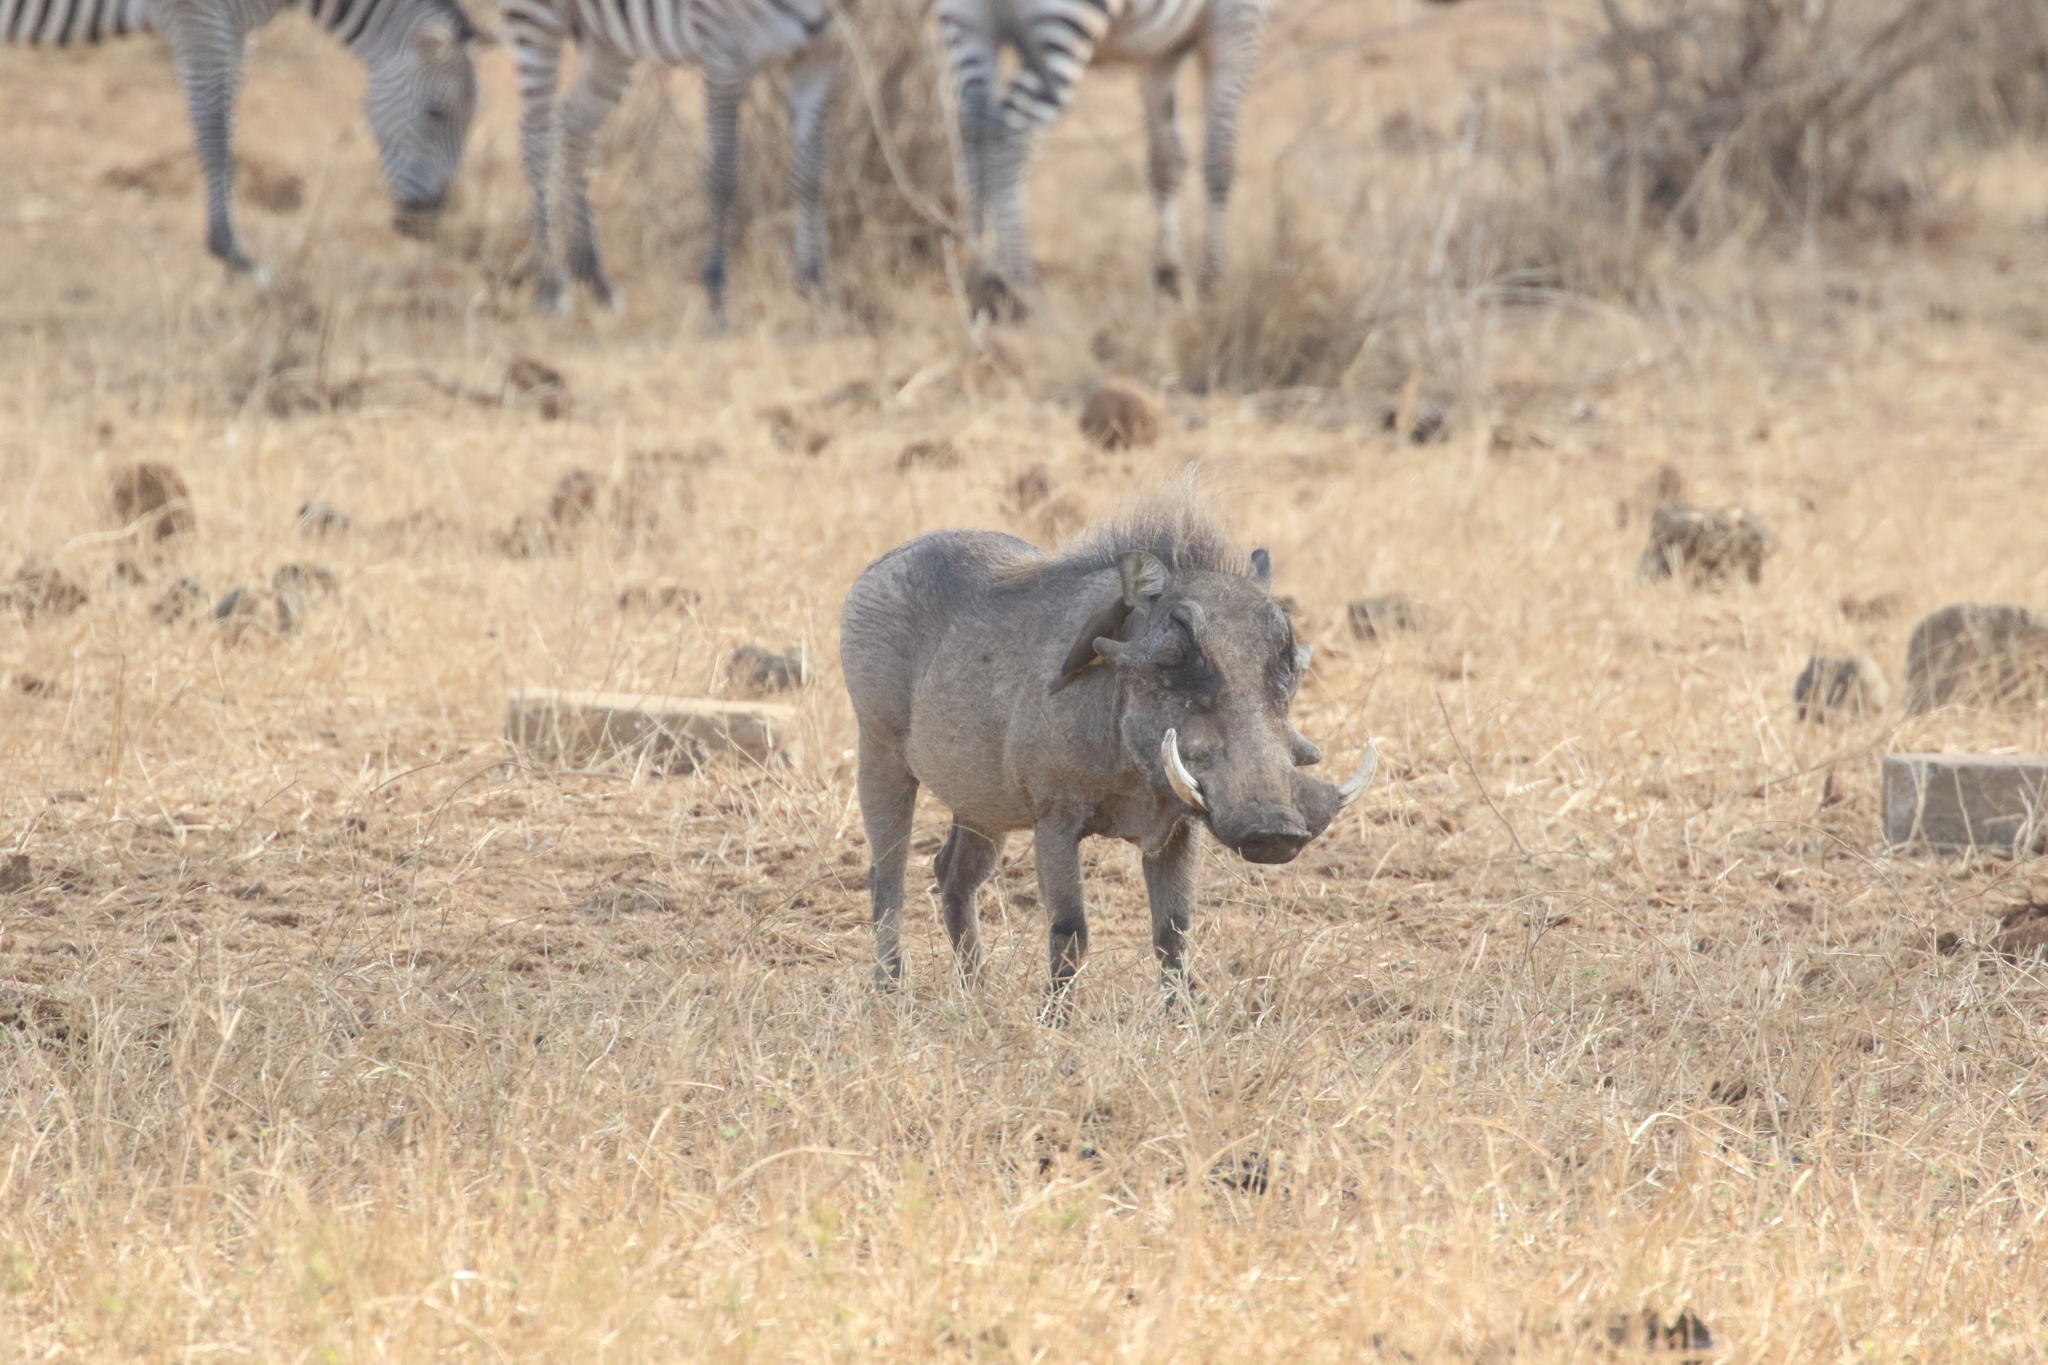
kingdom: Animalia
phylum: Chordata
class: Mammalia
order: Artiodactyla
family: Suidae
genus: Phacochoerus
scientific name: Phacochoerus africanus
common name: Common warthog
